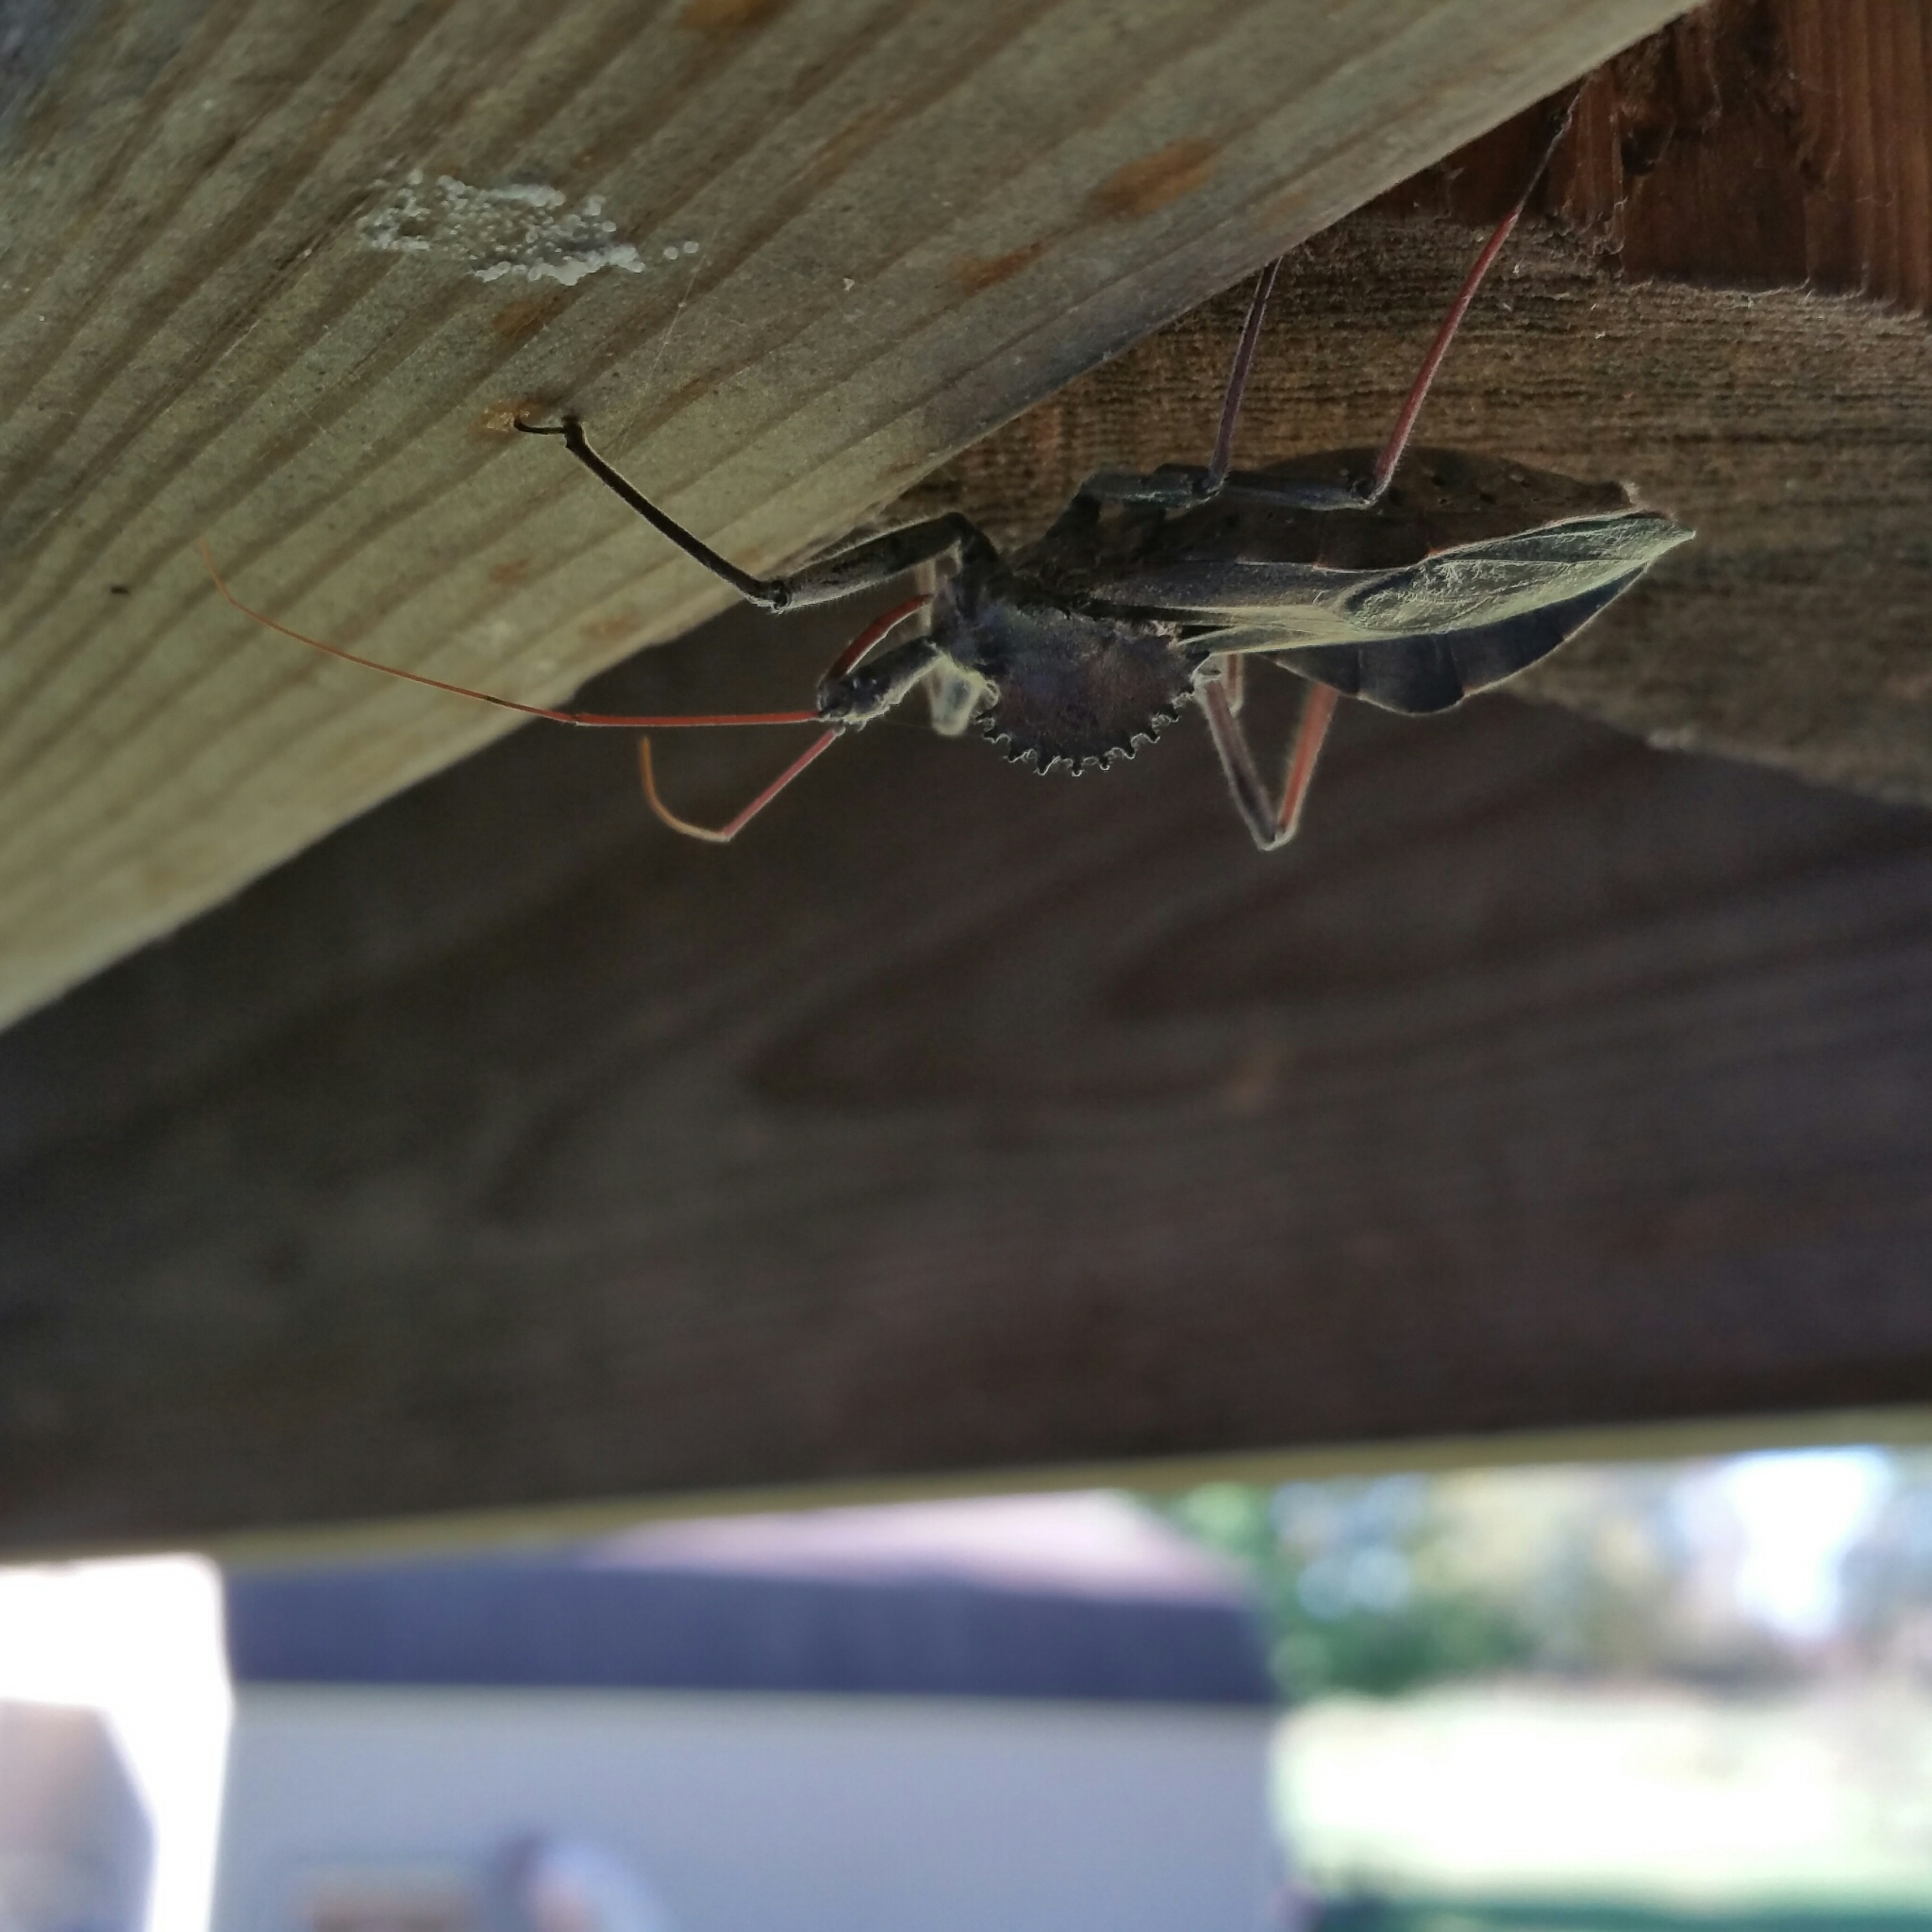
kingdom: Animalia
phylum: Arthropoda
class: Insecta
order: Hemiptera
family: Reduviidae
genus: Arilus
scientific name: Arilus cristatus
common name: North american wheel bug
